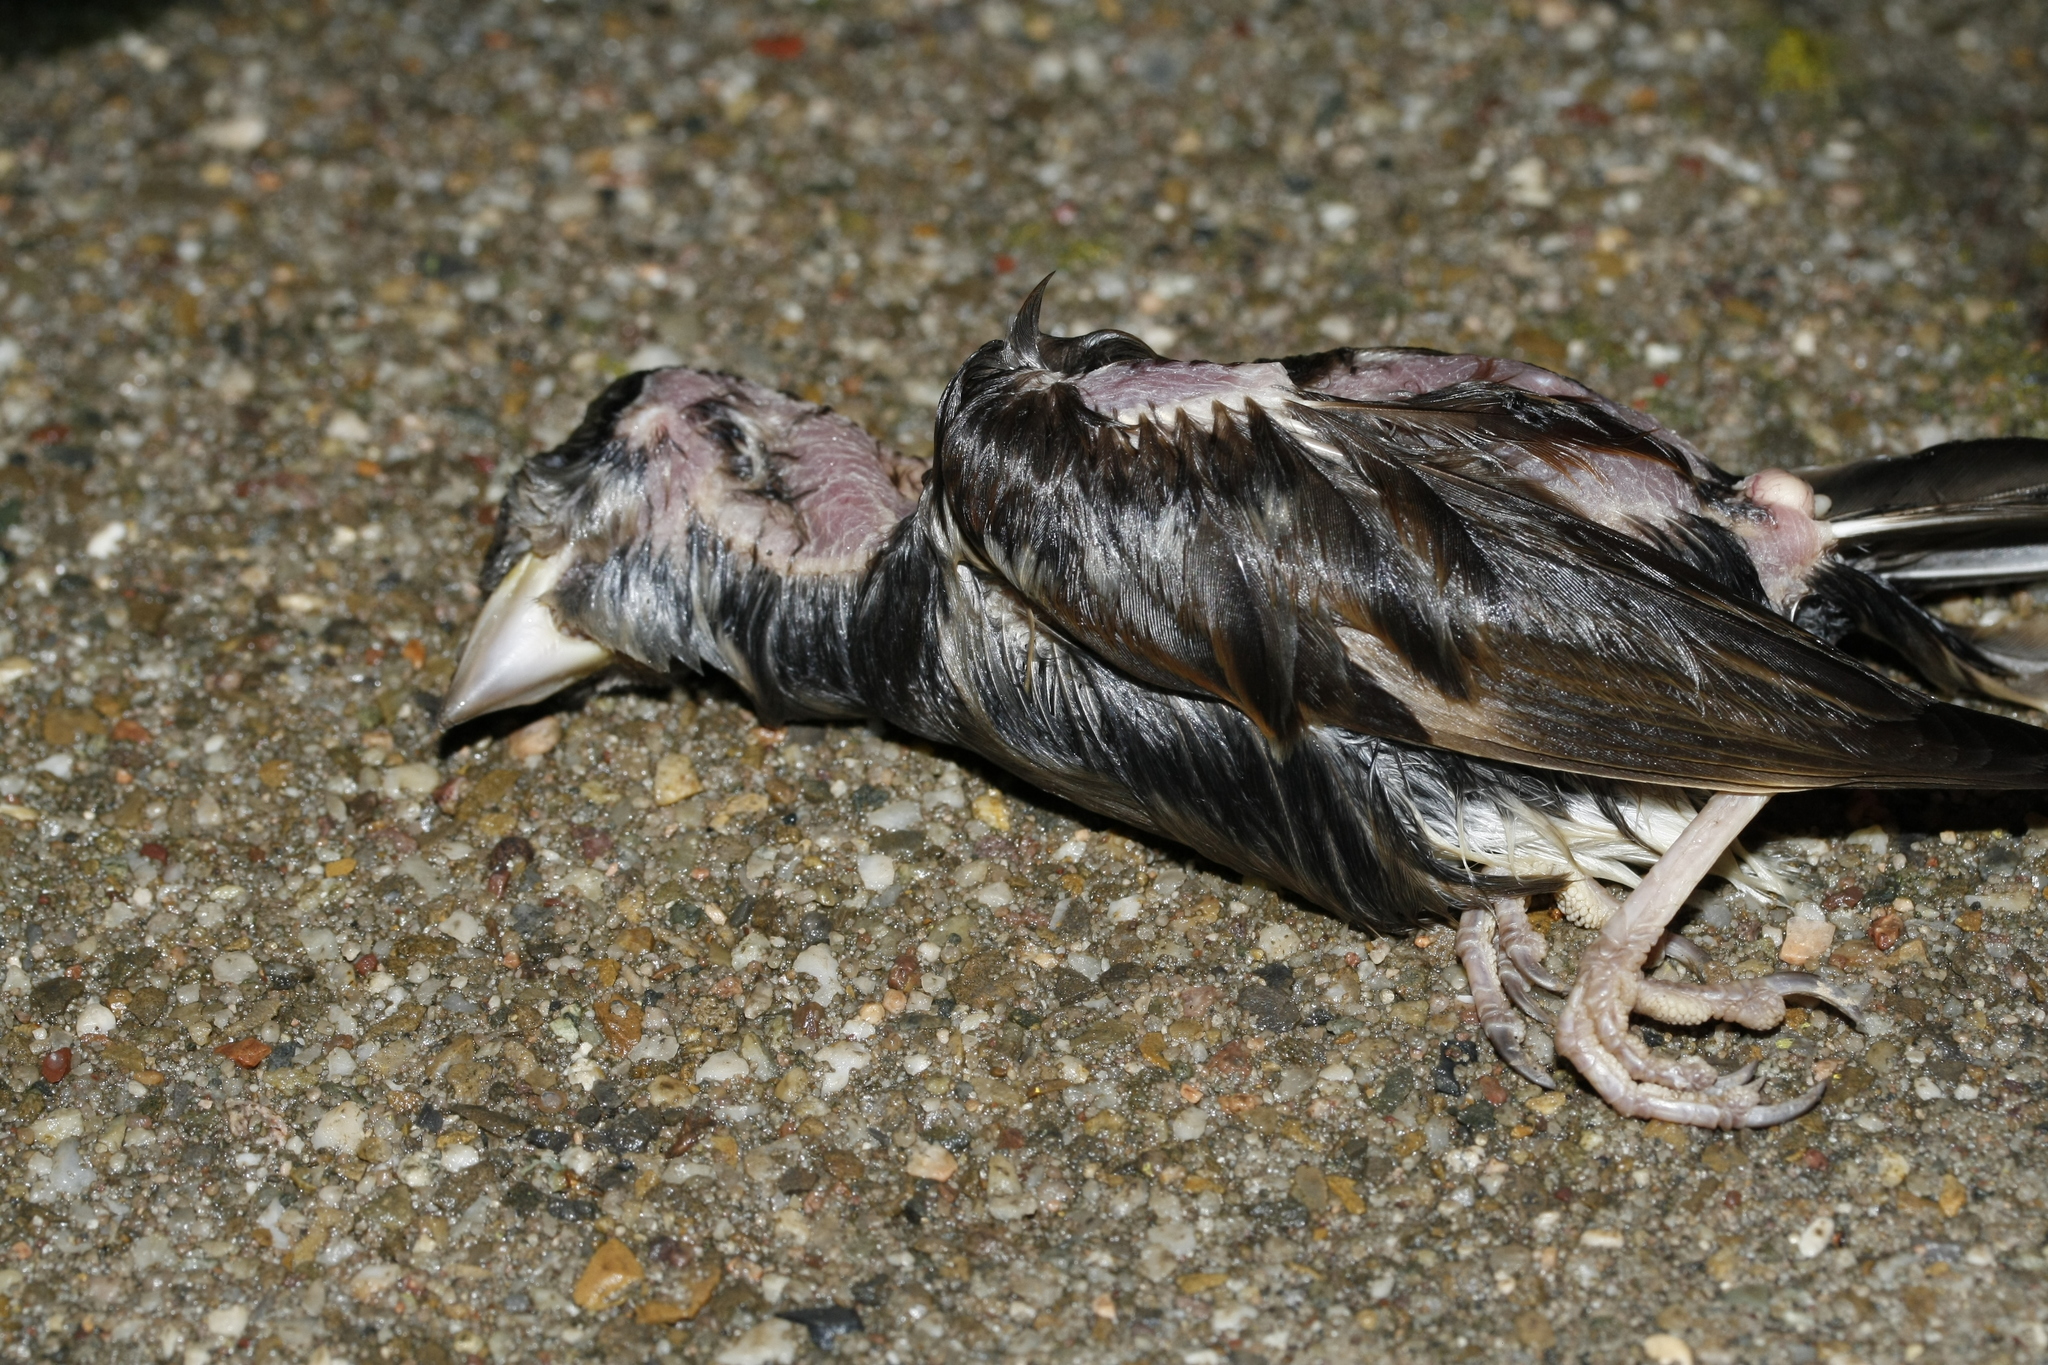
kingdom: Animalia
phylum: Chordata
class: Aves
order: Passeriformes
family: Fringillidae
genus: Coccothraustes
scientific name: Coccothraustes coccothraustes
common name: Hawfinch
